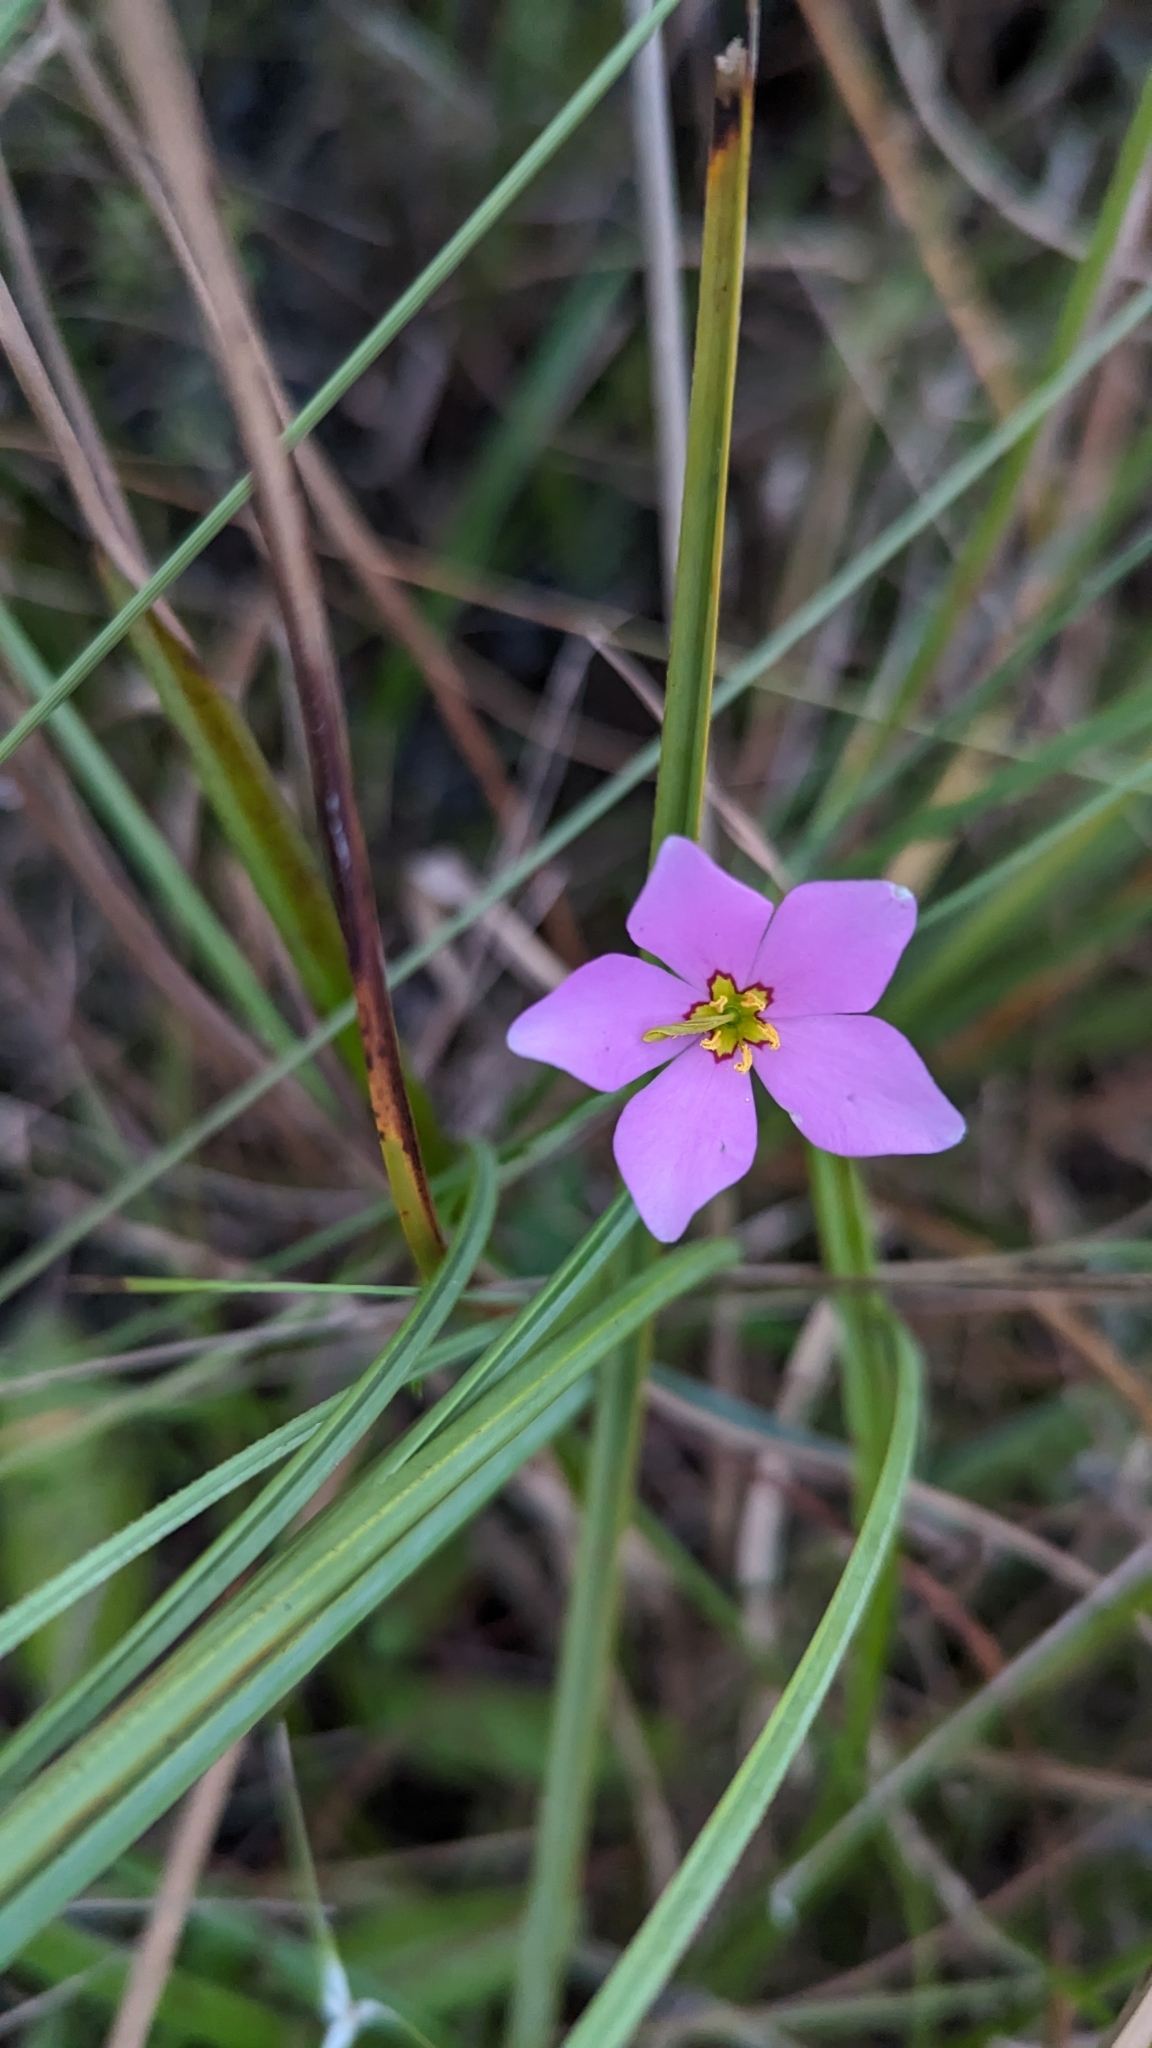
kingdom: Plantae
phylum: Tracheophyta
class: Magnoliopsida
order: Gentianales
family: Gentianaceae
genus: Sabatia
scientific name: Sabatia stellaris
